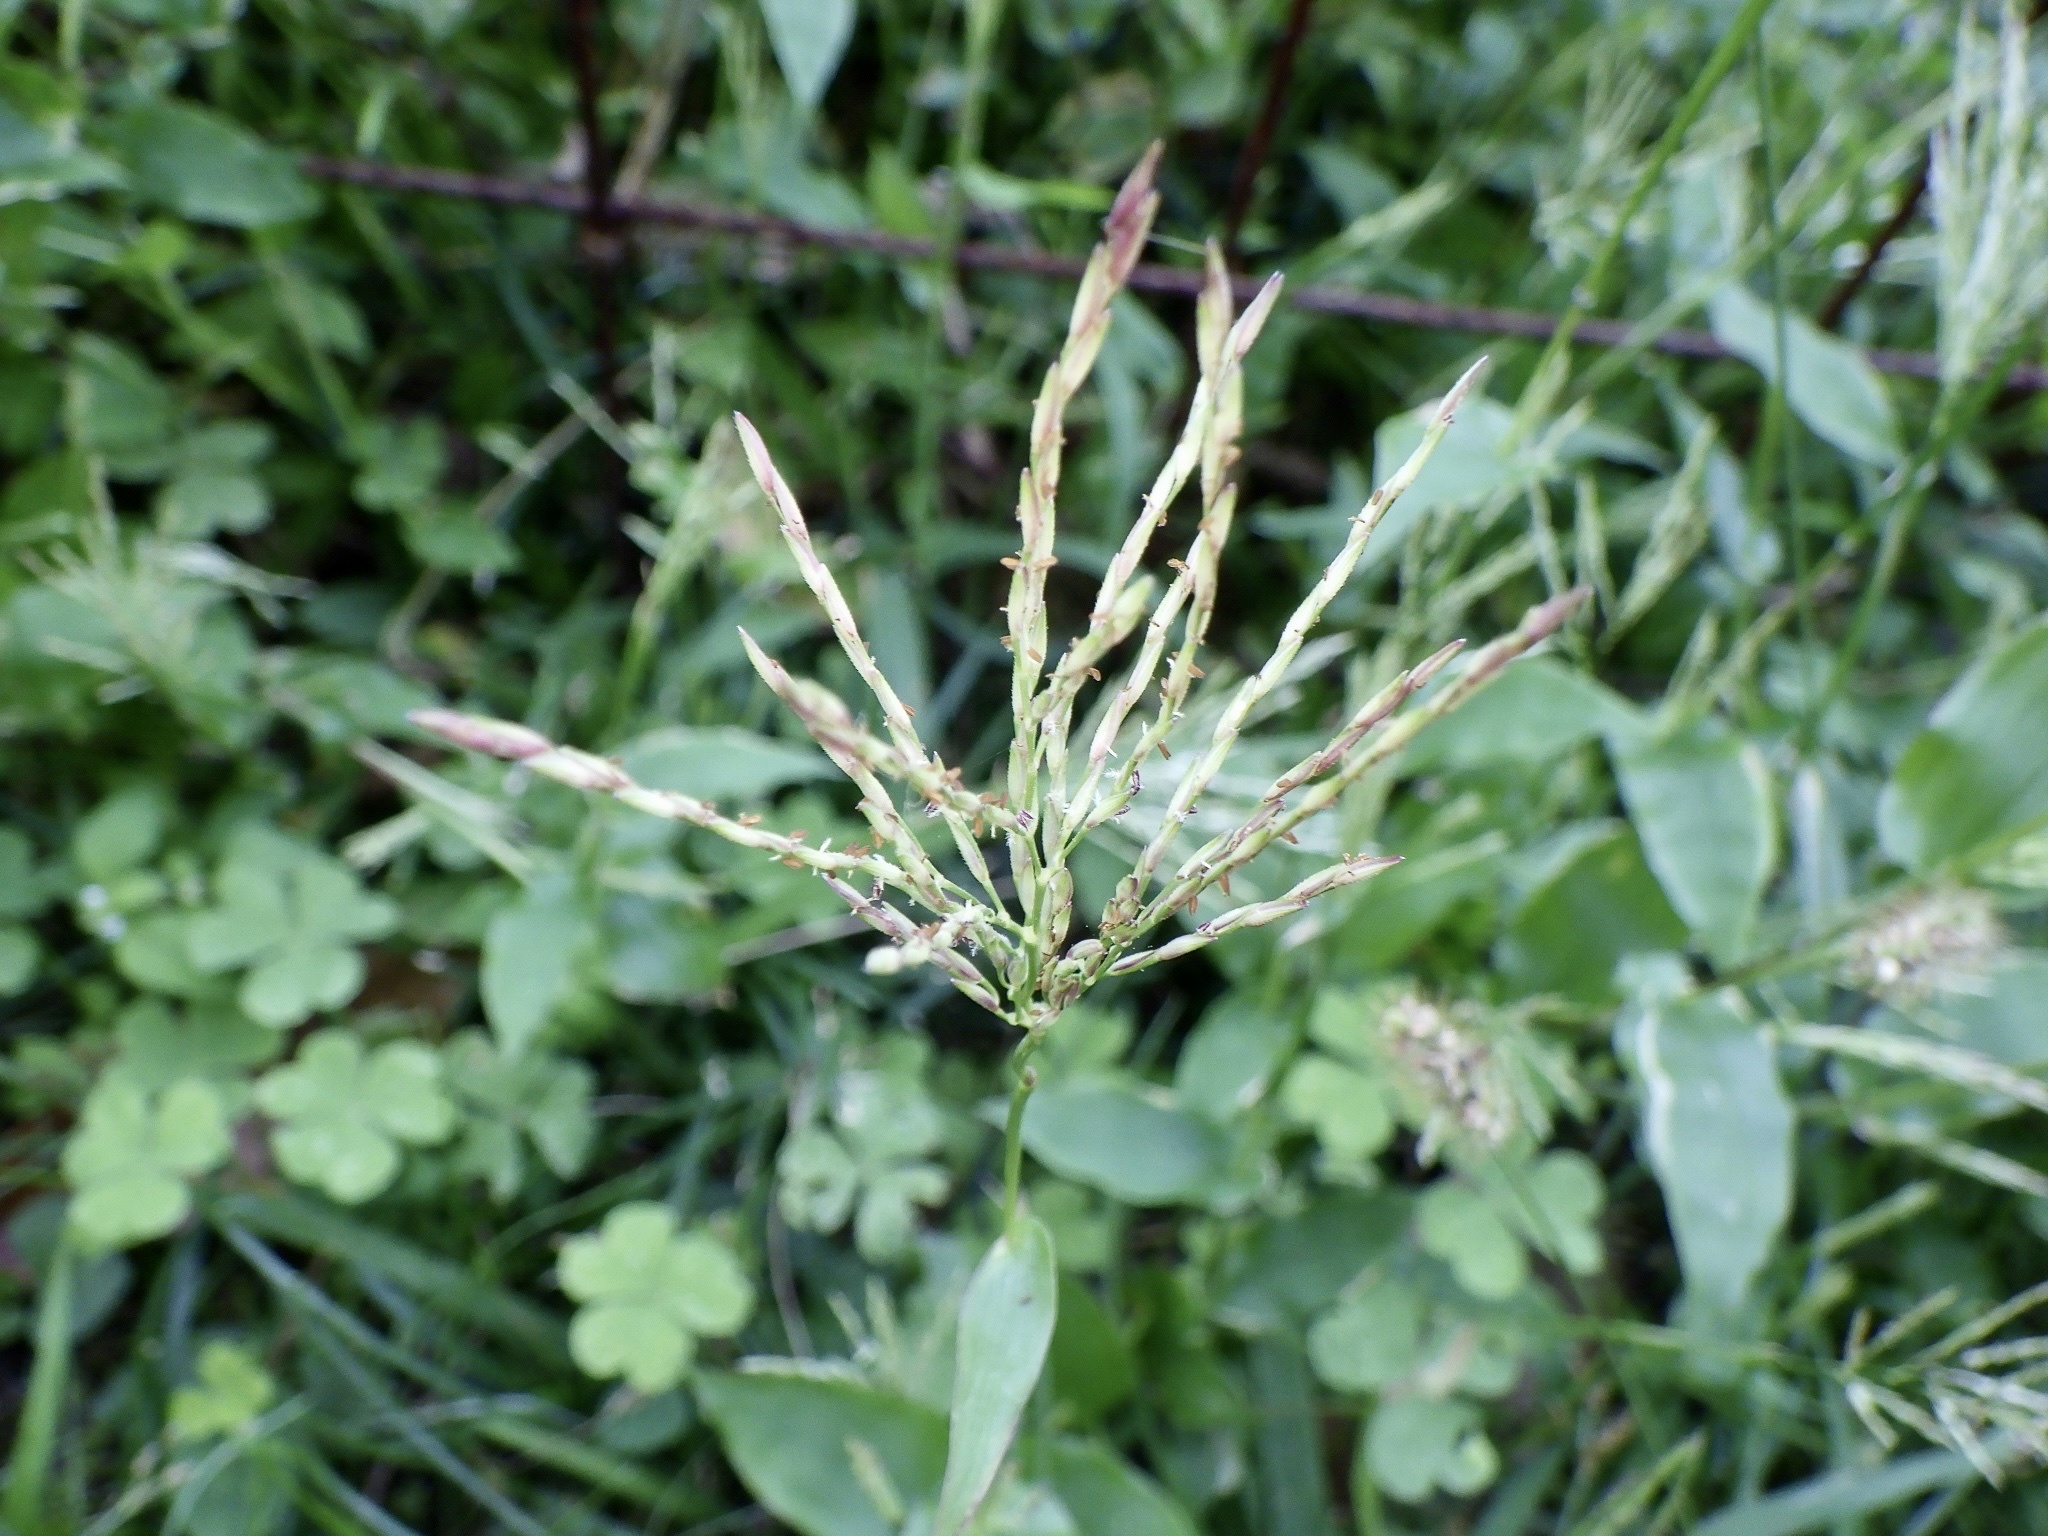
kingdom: Plantae
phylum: Tracheophyta
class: Liliopsida
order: Poales
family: Poaceae
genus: Arthraxon
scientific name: Arthraxon hispidus
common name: Small carpgrass
